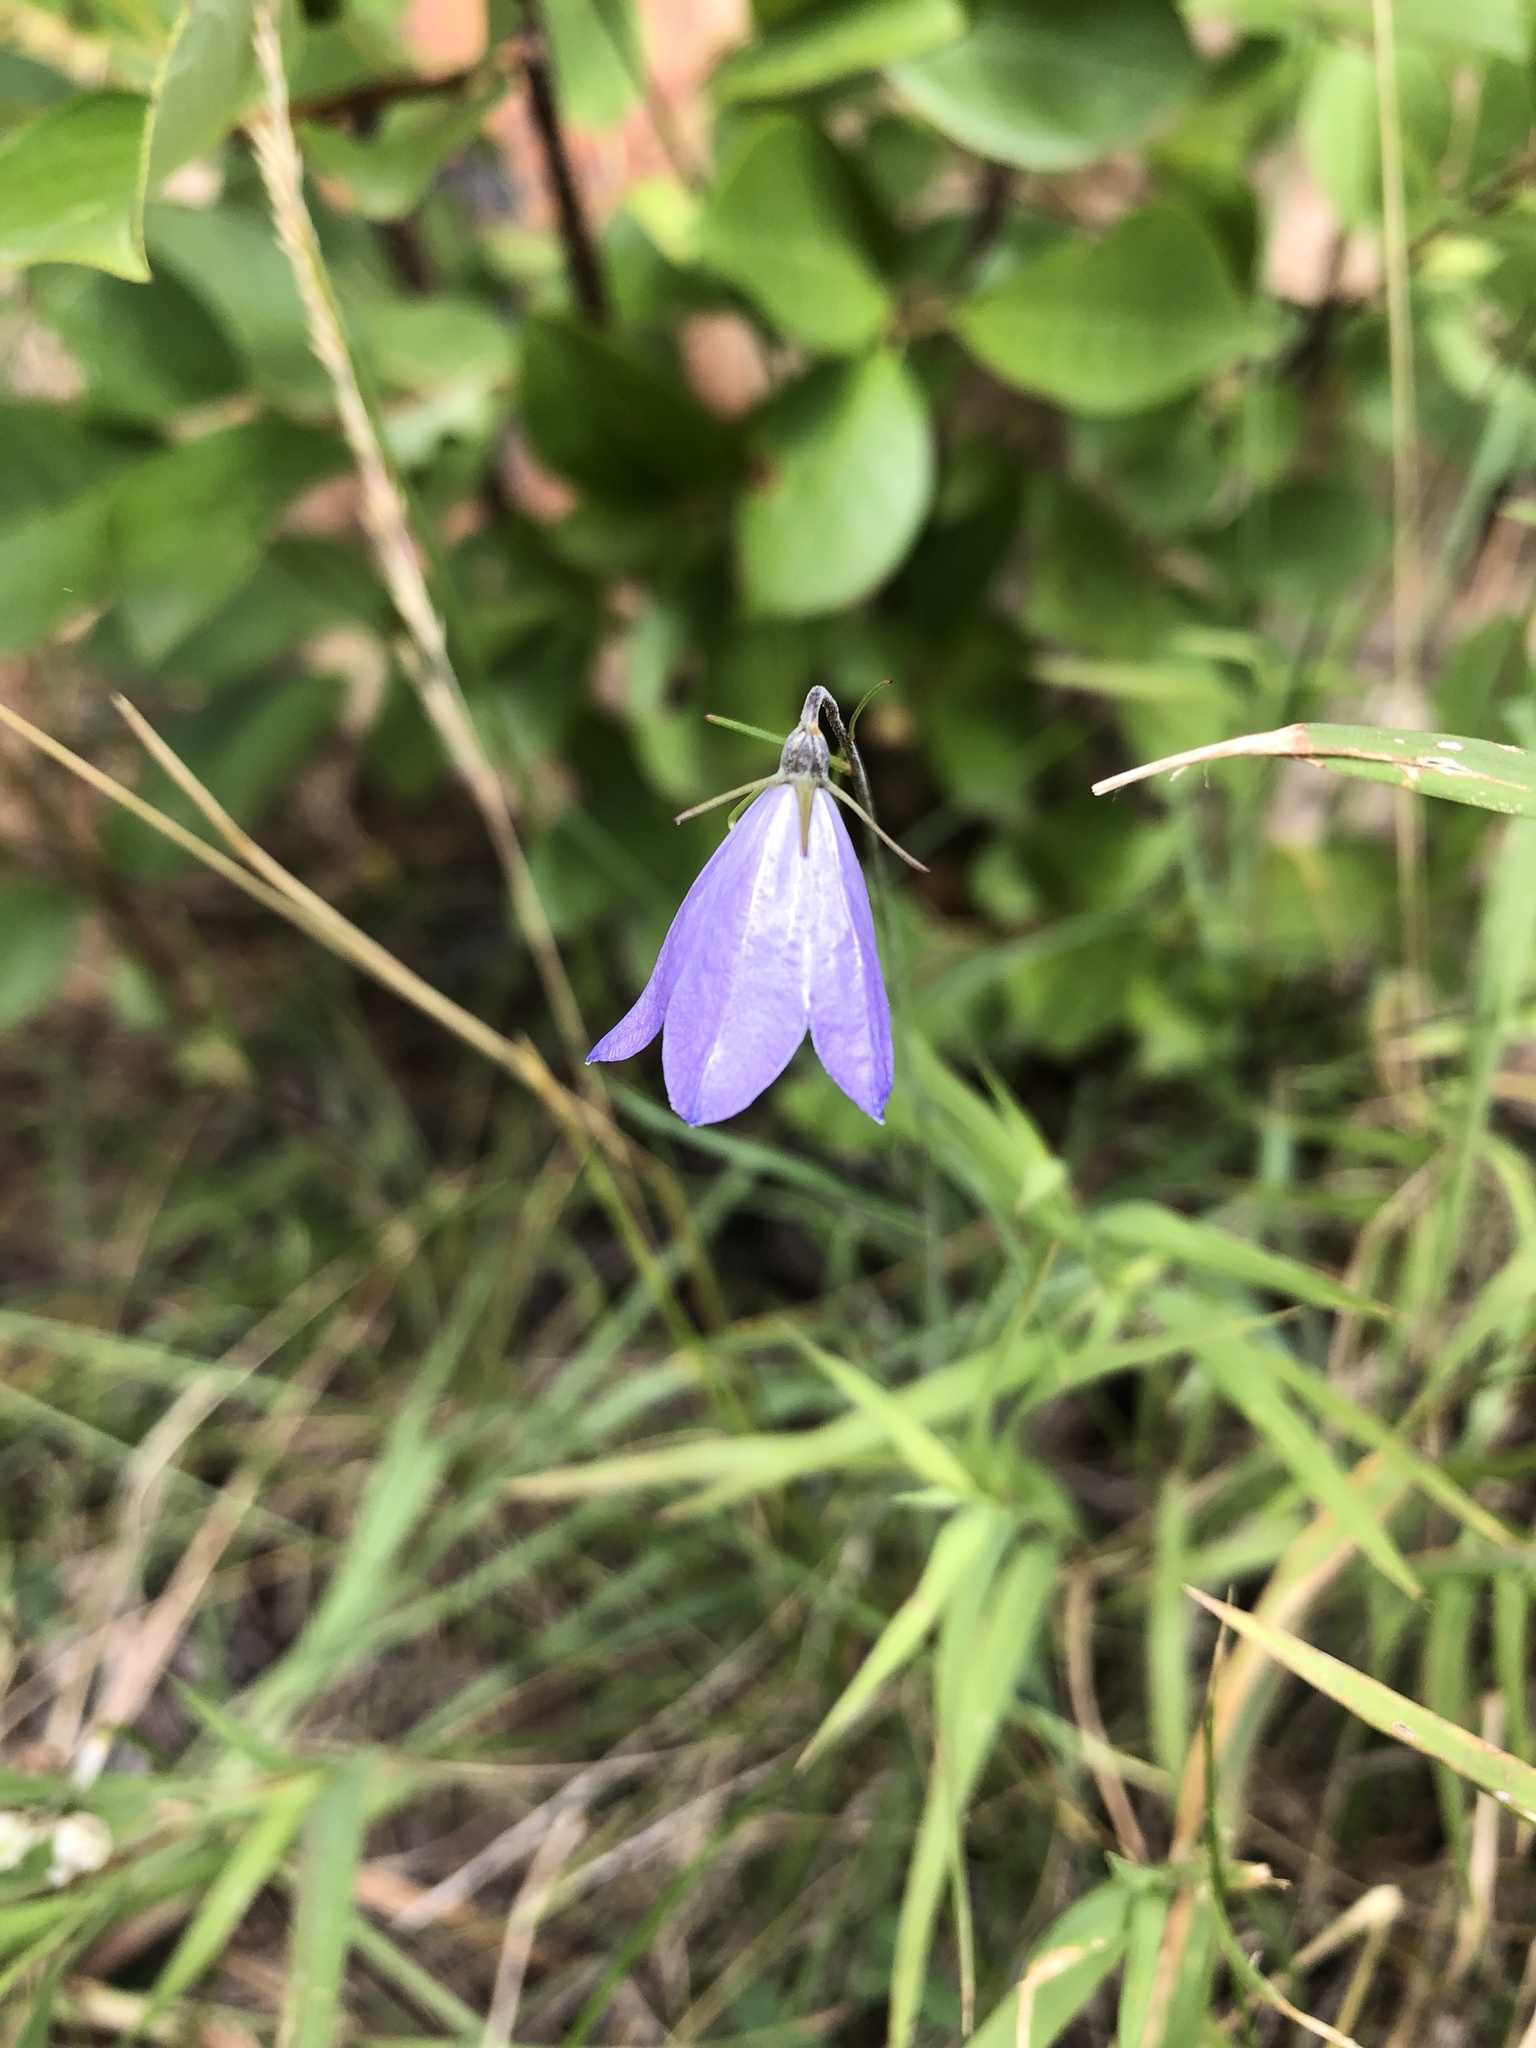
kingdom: Plantae
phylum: Tracheophyta
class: Magnoliopsida
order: Asterales
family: Campanulaceae
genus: Campanula
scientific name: Campanula petiolata
